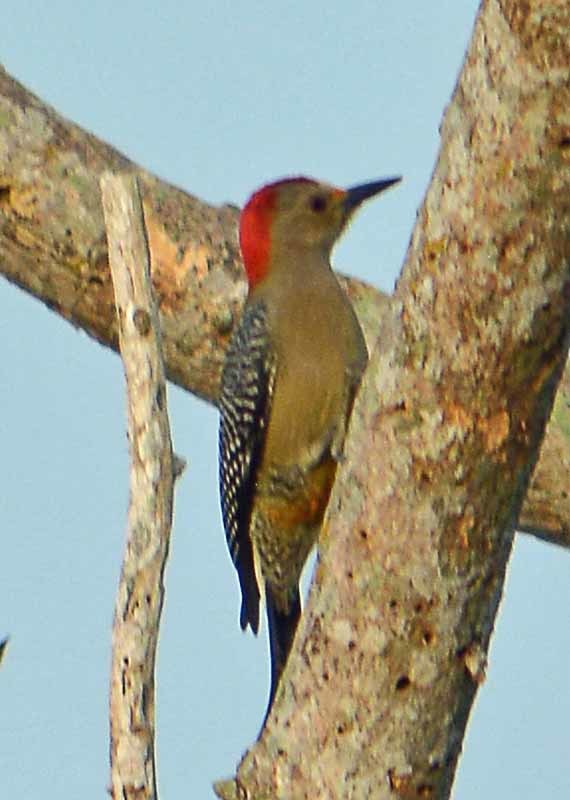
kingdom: Animalia
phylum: Chordata
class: Aves
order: Piciformes
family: Picidae
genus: Melanerpes
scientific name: Melanerpes aurifrons
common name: Golden-fronted woodpecker
